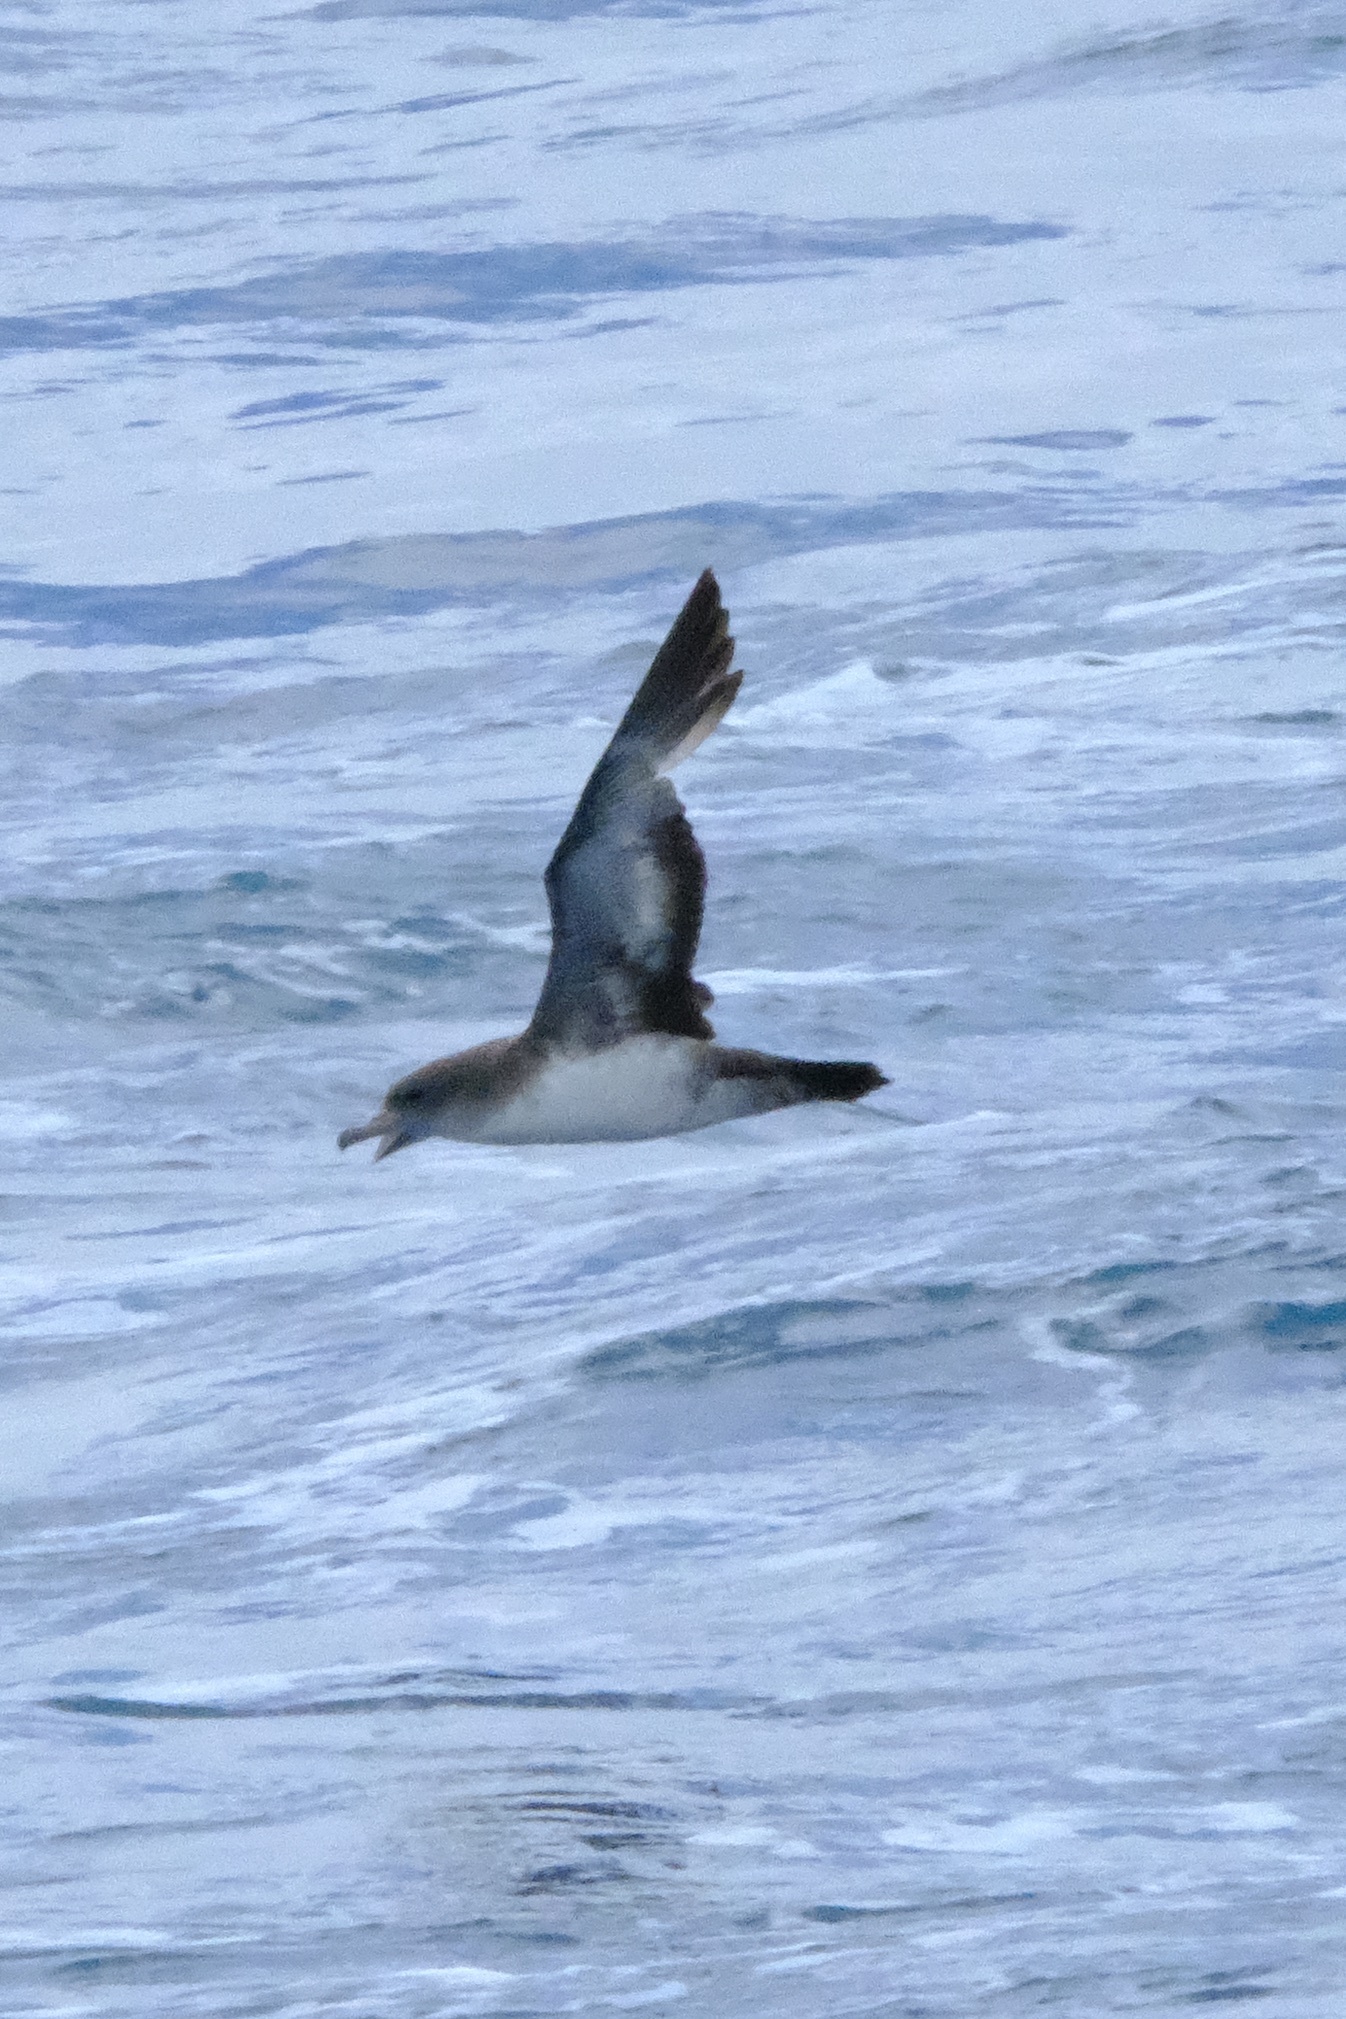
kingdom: Animalia
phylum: Chordata
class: Aves
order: Procellariiformes
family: Procellariidae
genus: Puffinus
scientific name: Puffinus creatopus
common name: Pink-footed shearwater
